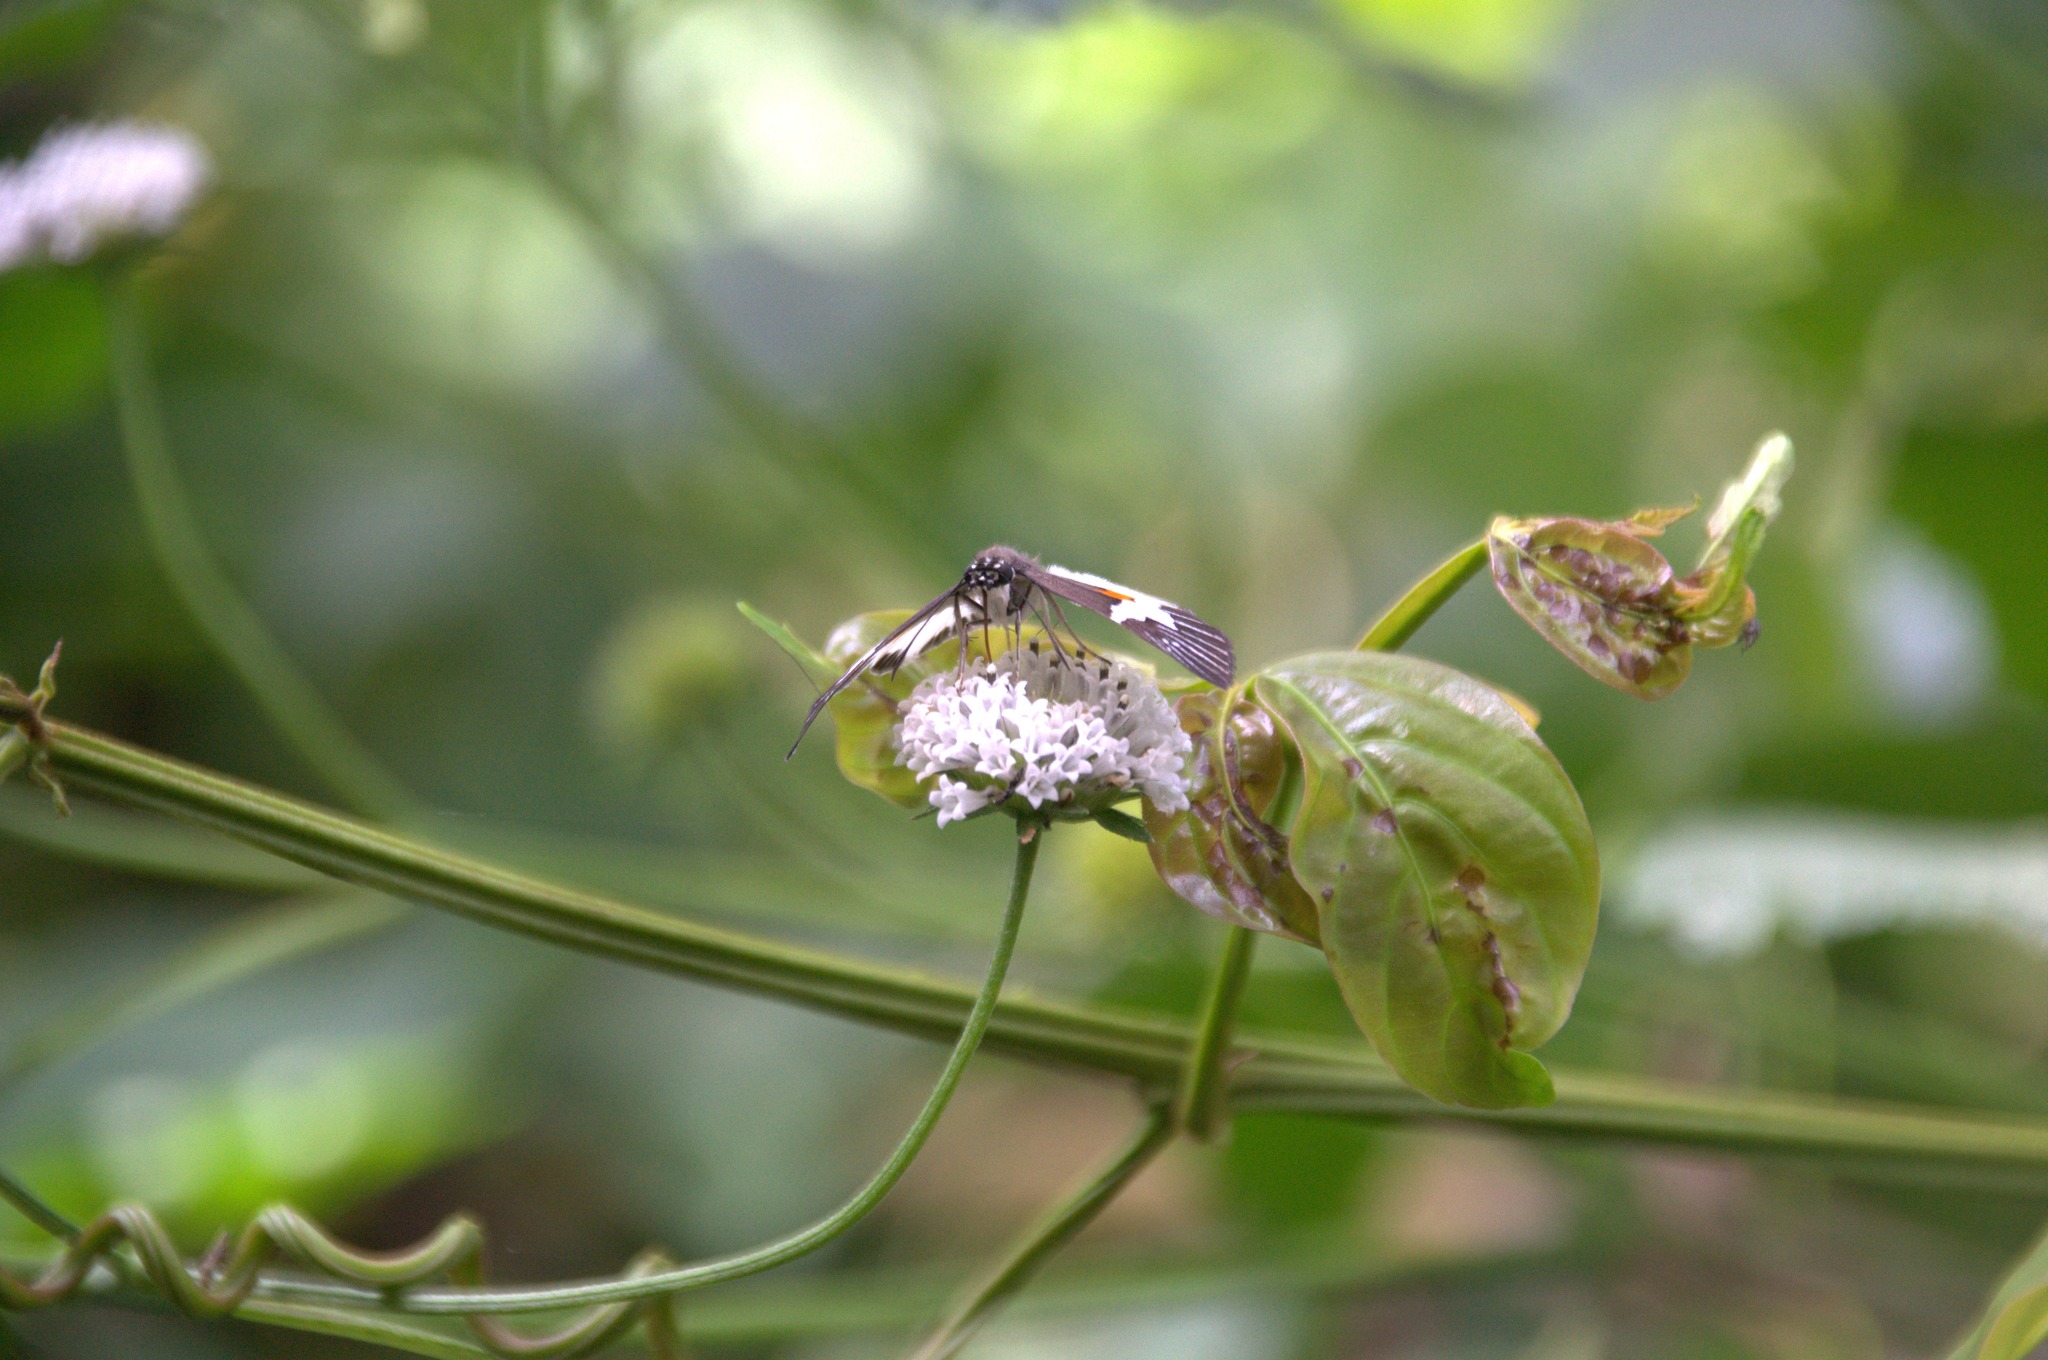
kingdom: Animalia
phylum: Arthropoda
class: Insecta
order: Lepidoptera
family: Hesperiidae
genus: Atarnes
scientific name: Atarnes sallei
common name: Orange-spotted skipper
